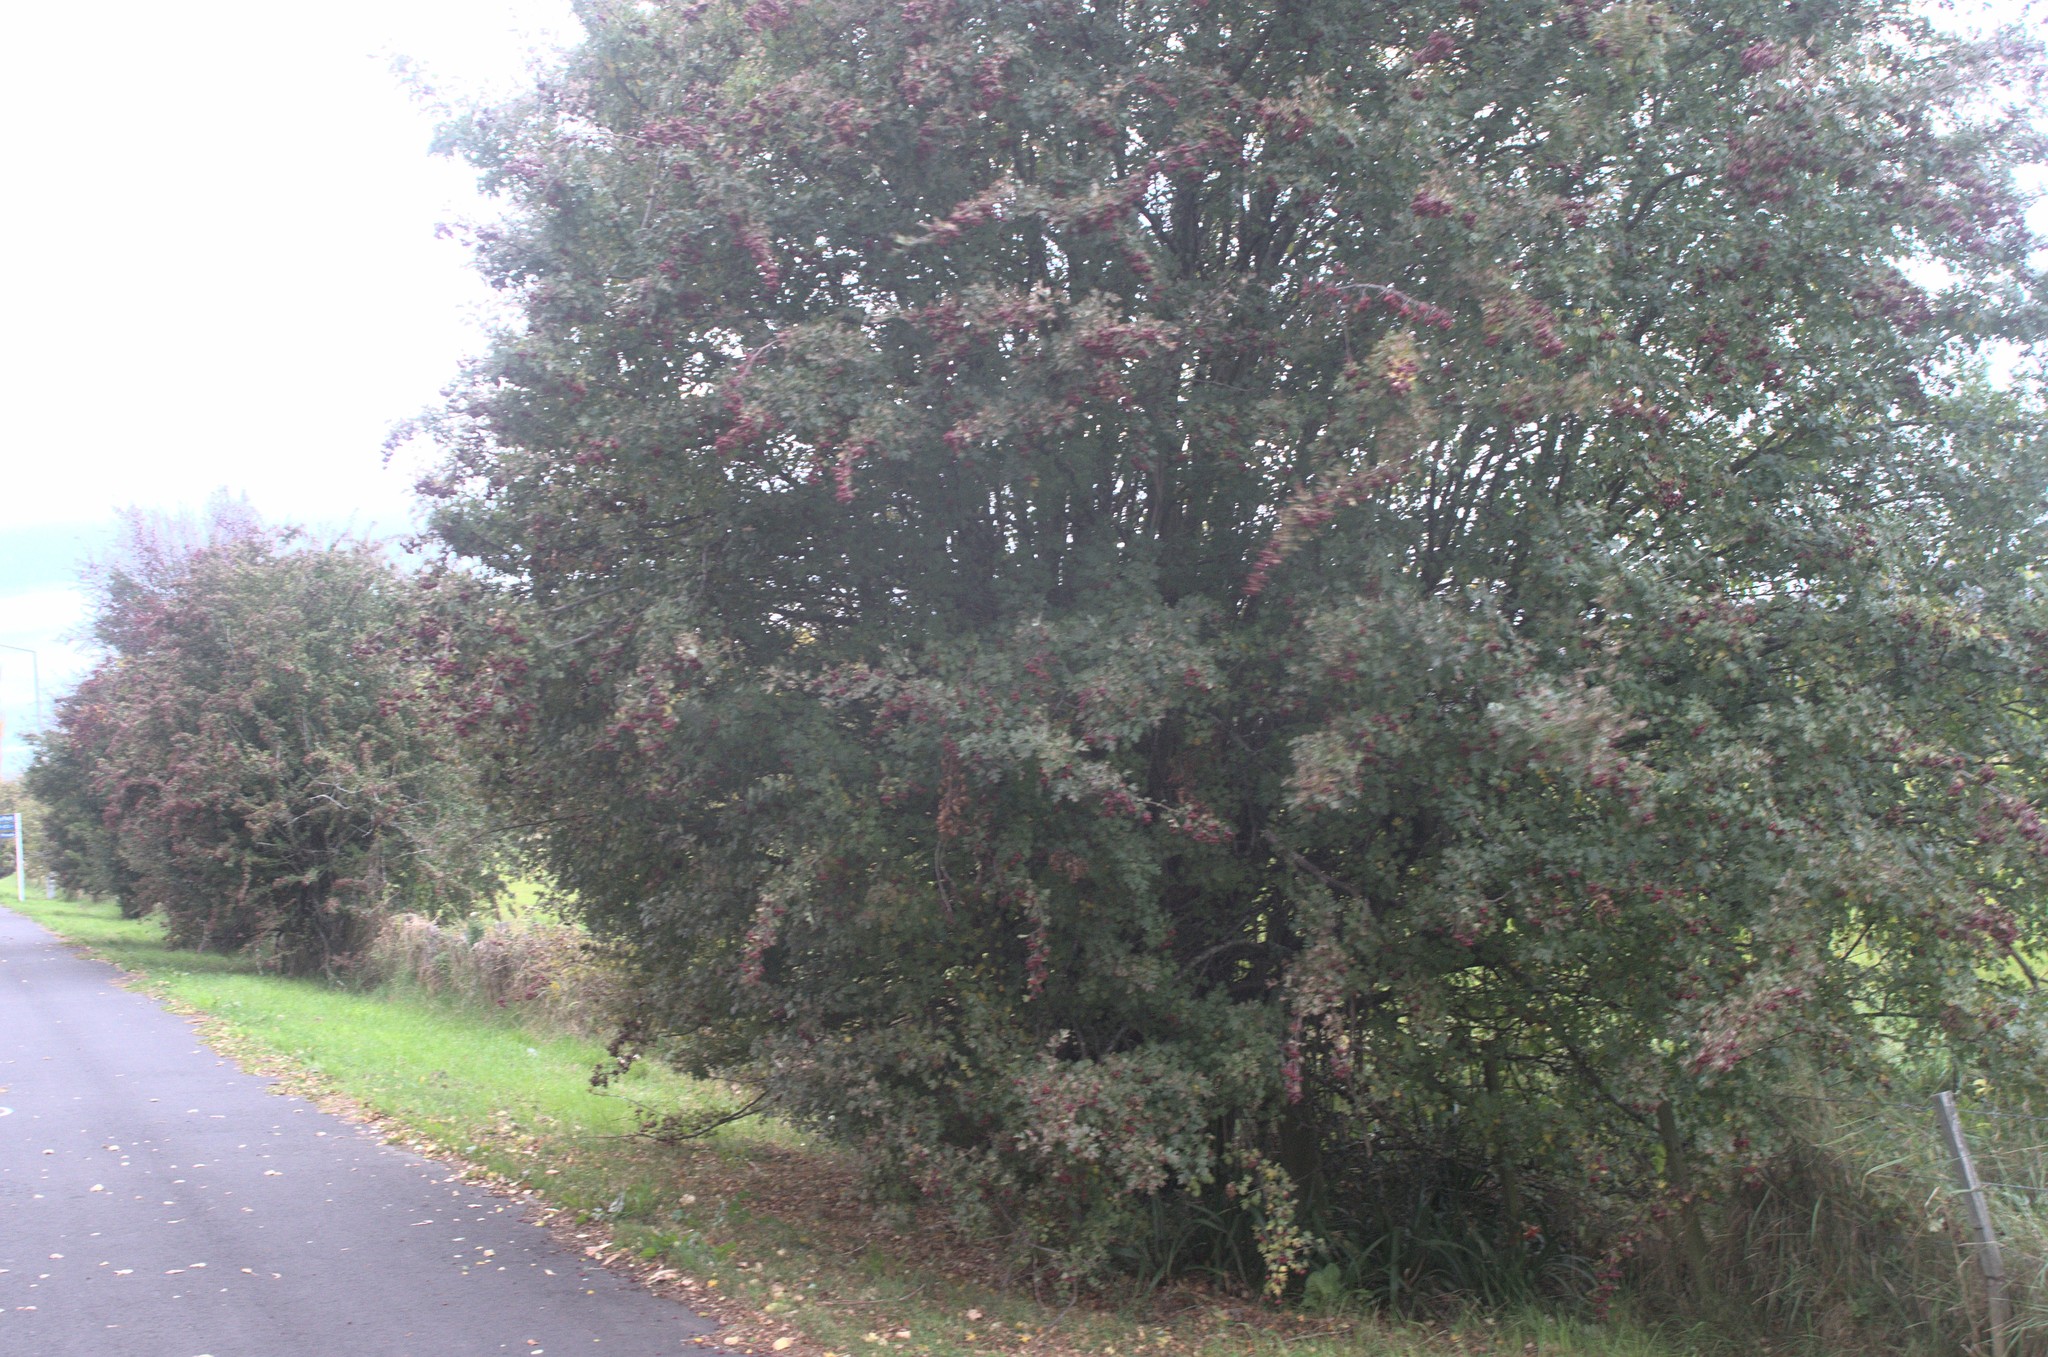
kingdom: Plantae
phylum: Tracheophyta
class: Magnoliopsida
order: Rosales
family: Rosaceae
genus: Crataegus
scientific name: Crataegus monogyna
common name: Hawthorn
